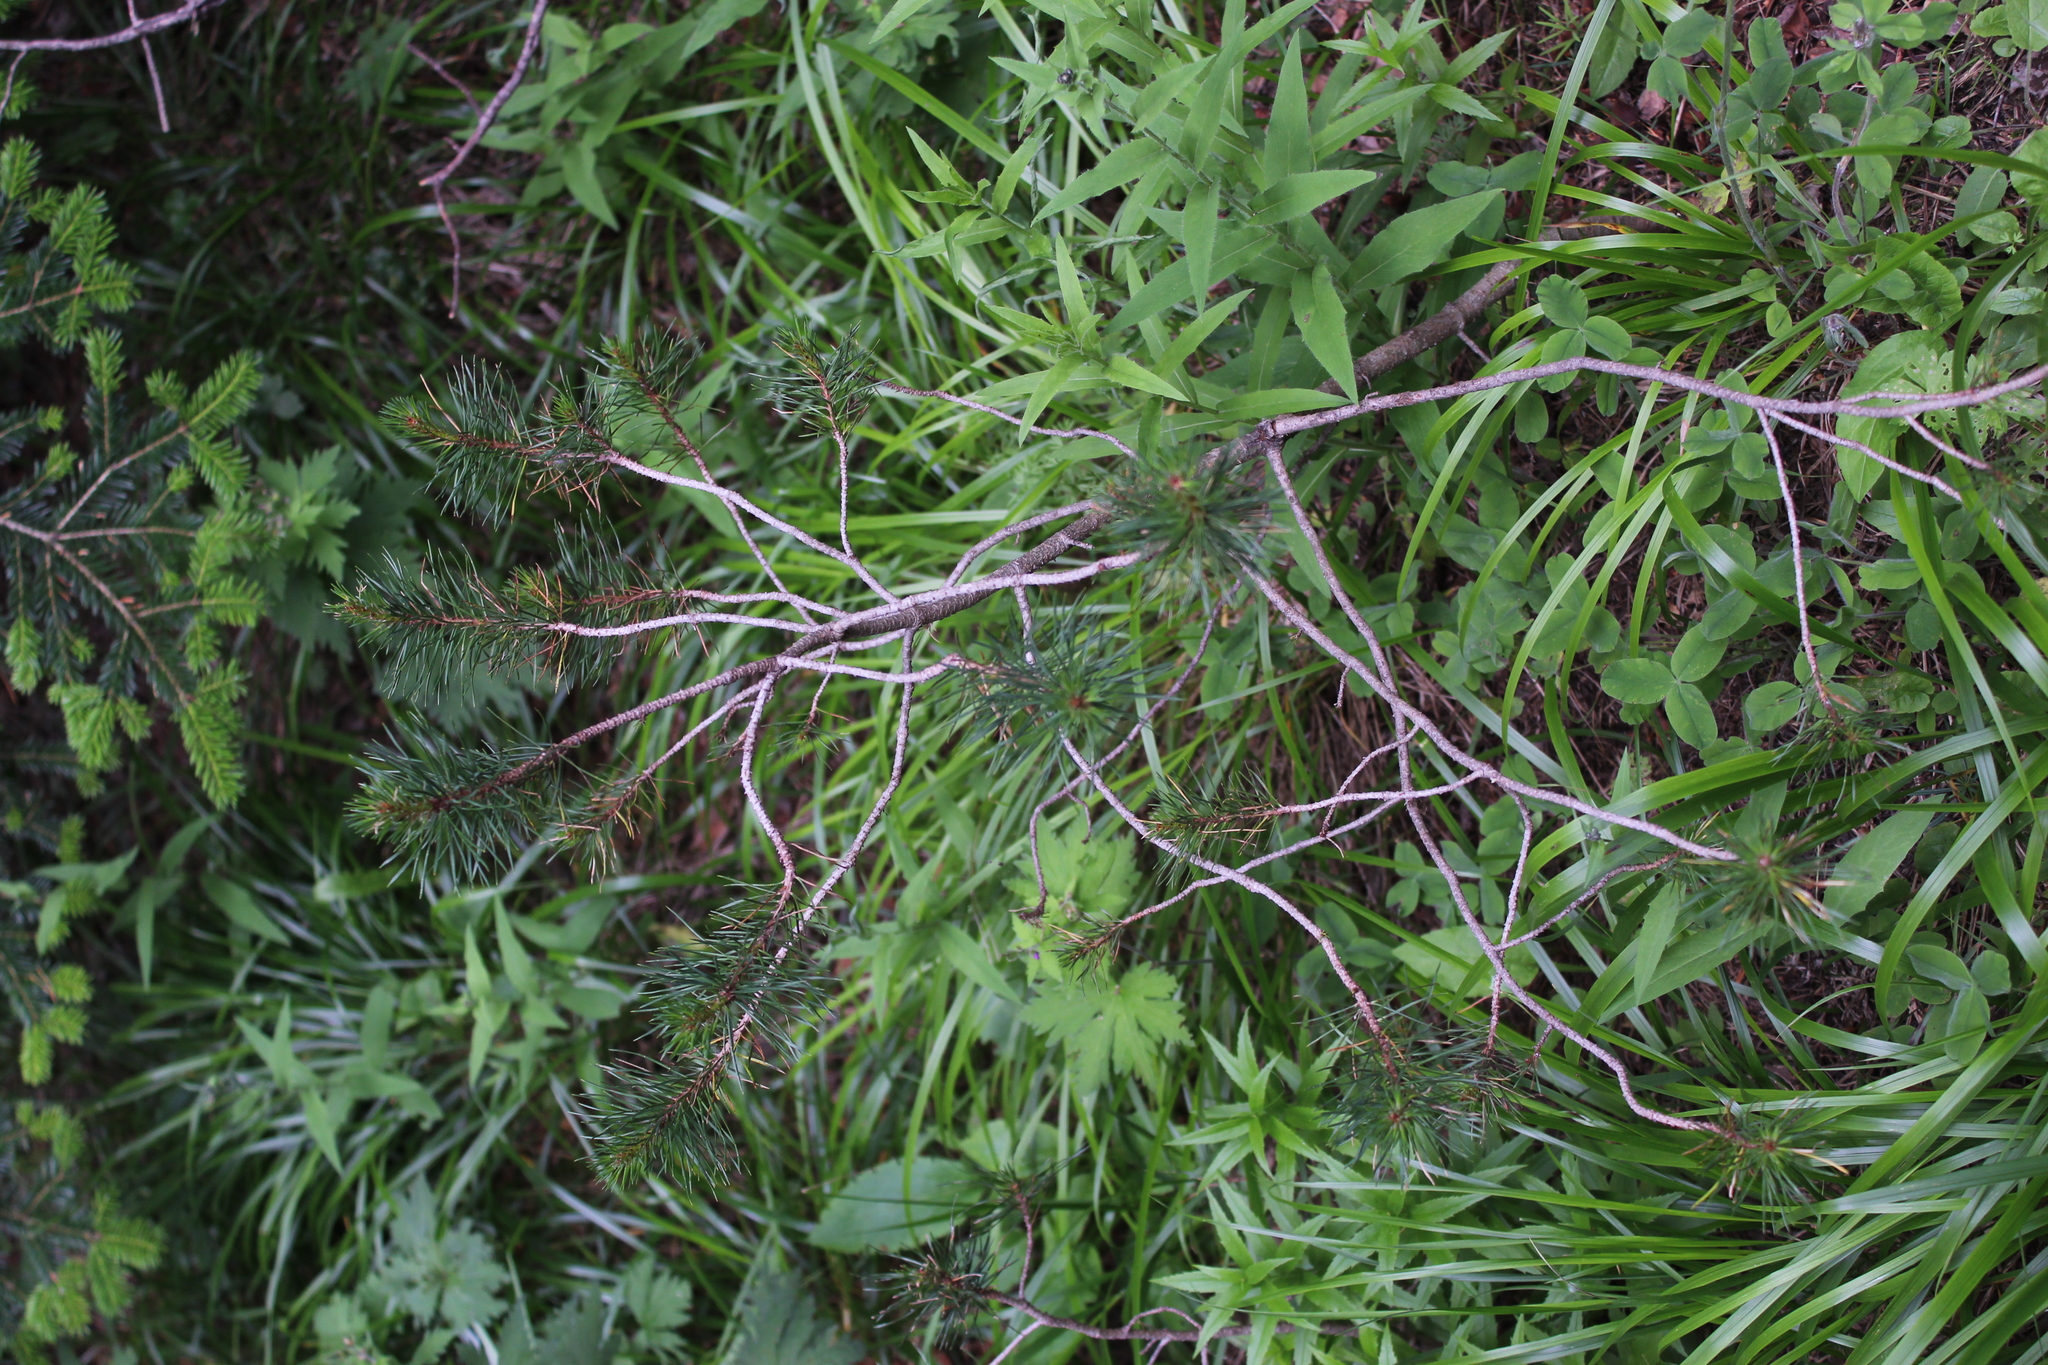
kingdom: Plantae
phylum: Tracheophyta
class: Pinopsida
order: Pinales
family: Pinaceae
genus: Pinus
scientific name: Pinus sylvestris
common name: Scots pine
